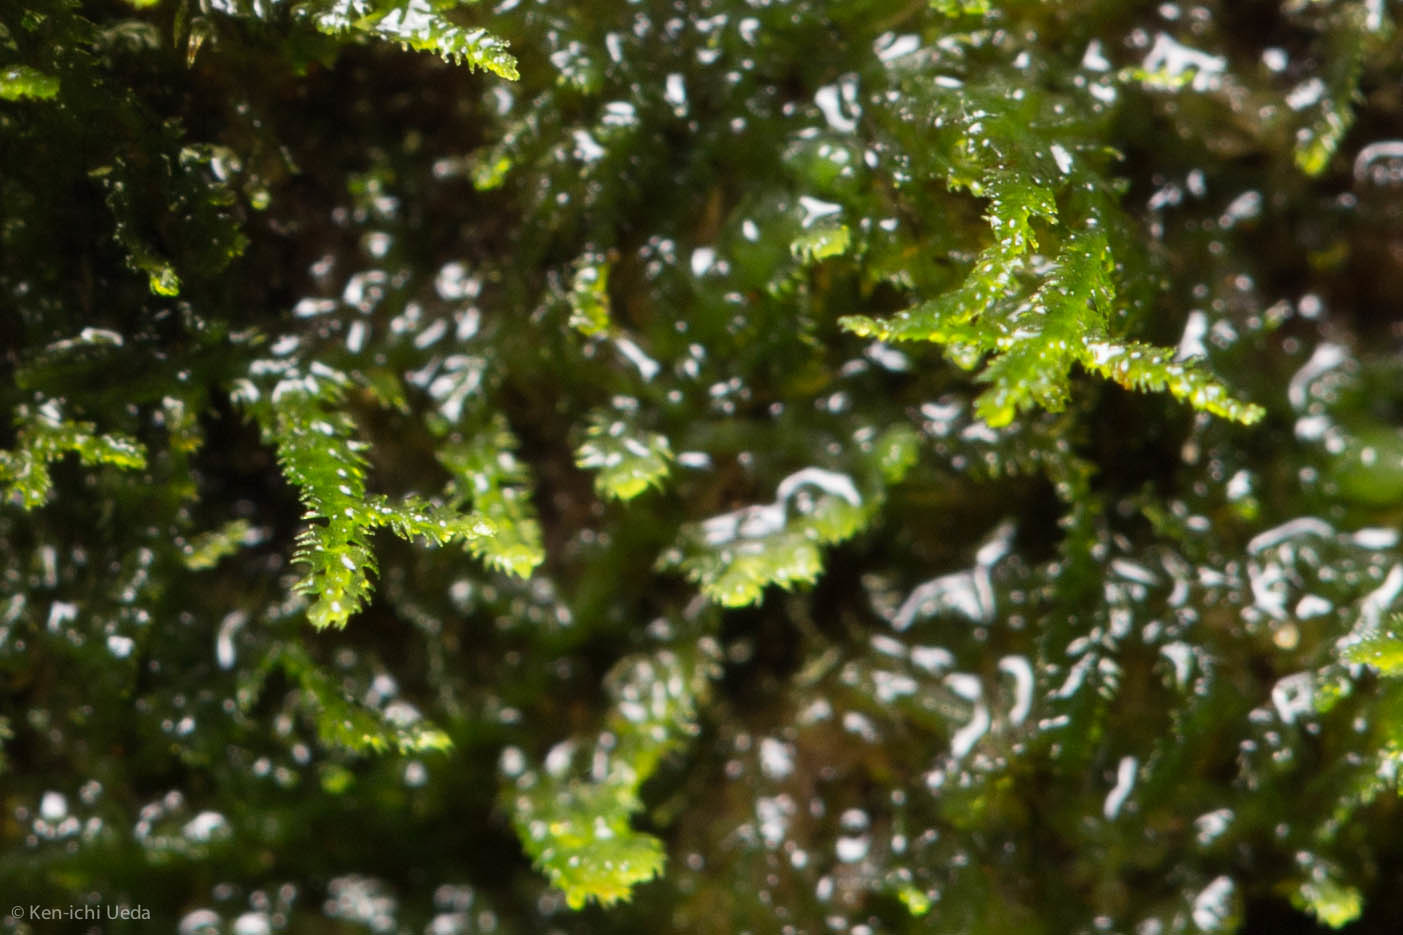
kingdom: Plantae
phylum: Marchantiophyta
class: Jungermanniopsida
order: Jungermanniales
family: Lepidoziaceae
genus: Lepidozia
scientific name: Lepidozia reptans
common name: Creeping fingerwort
